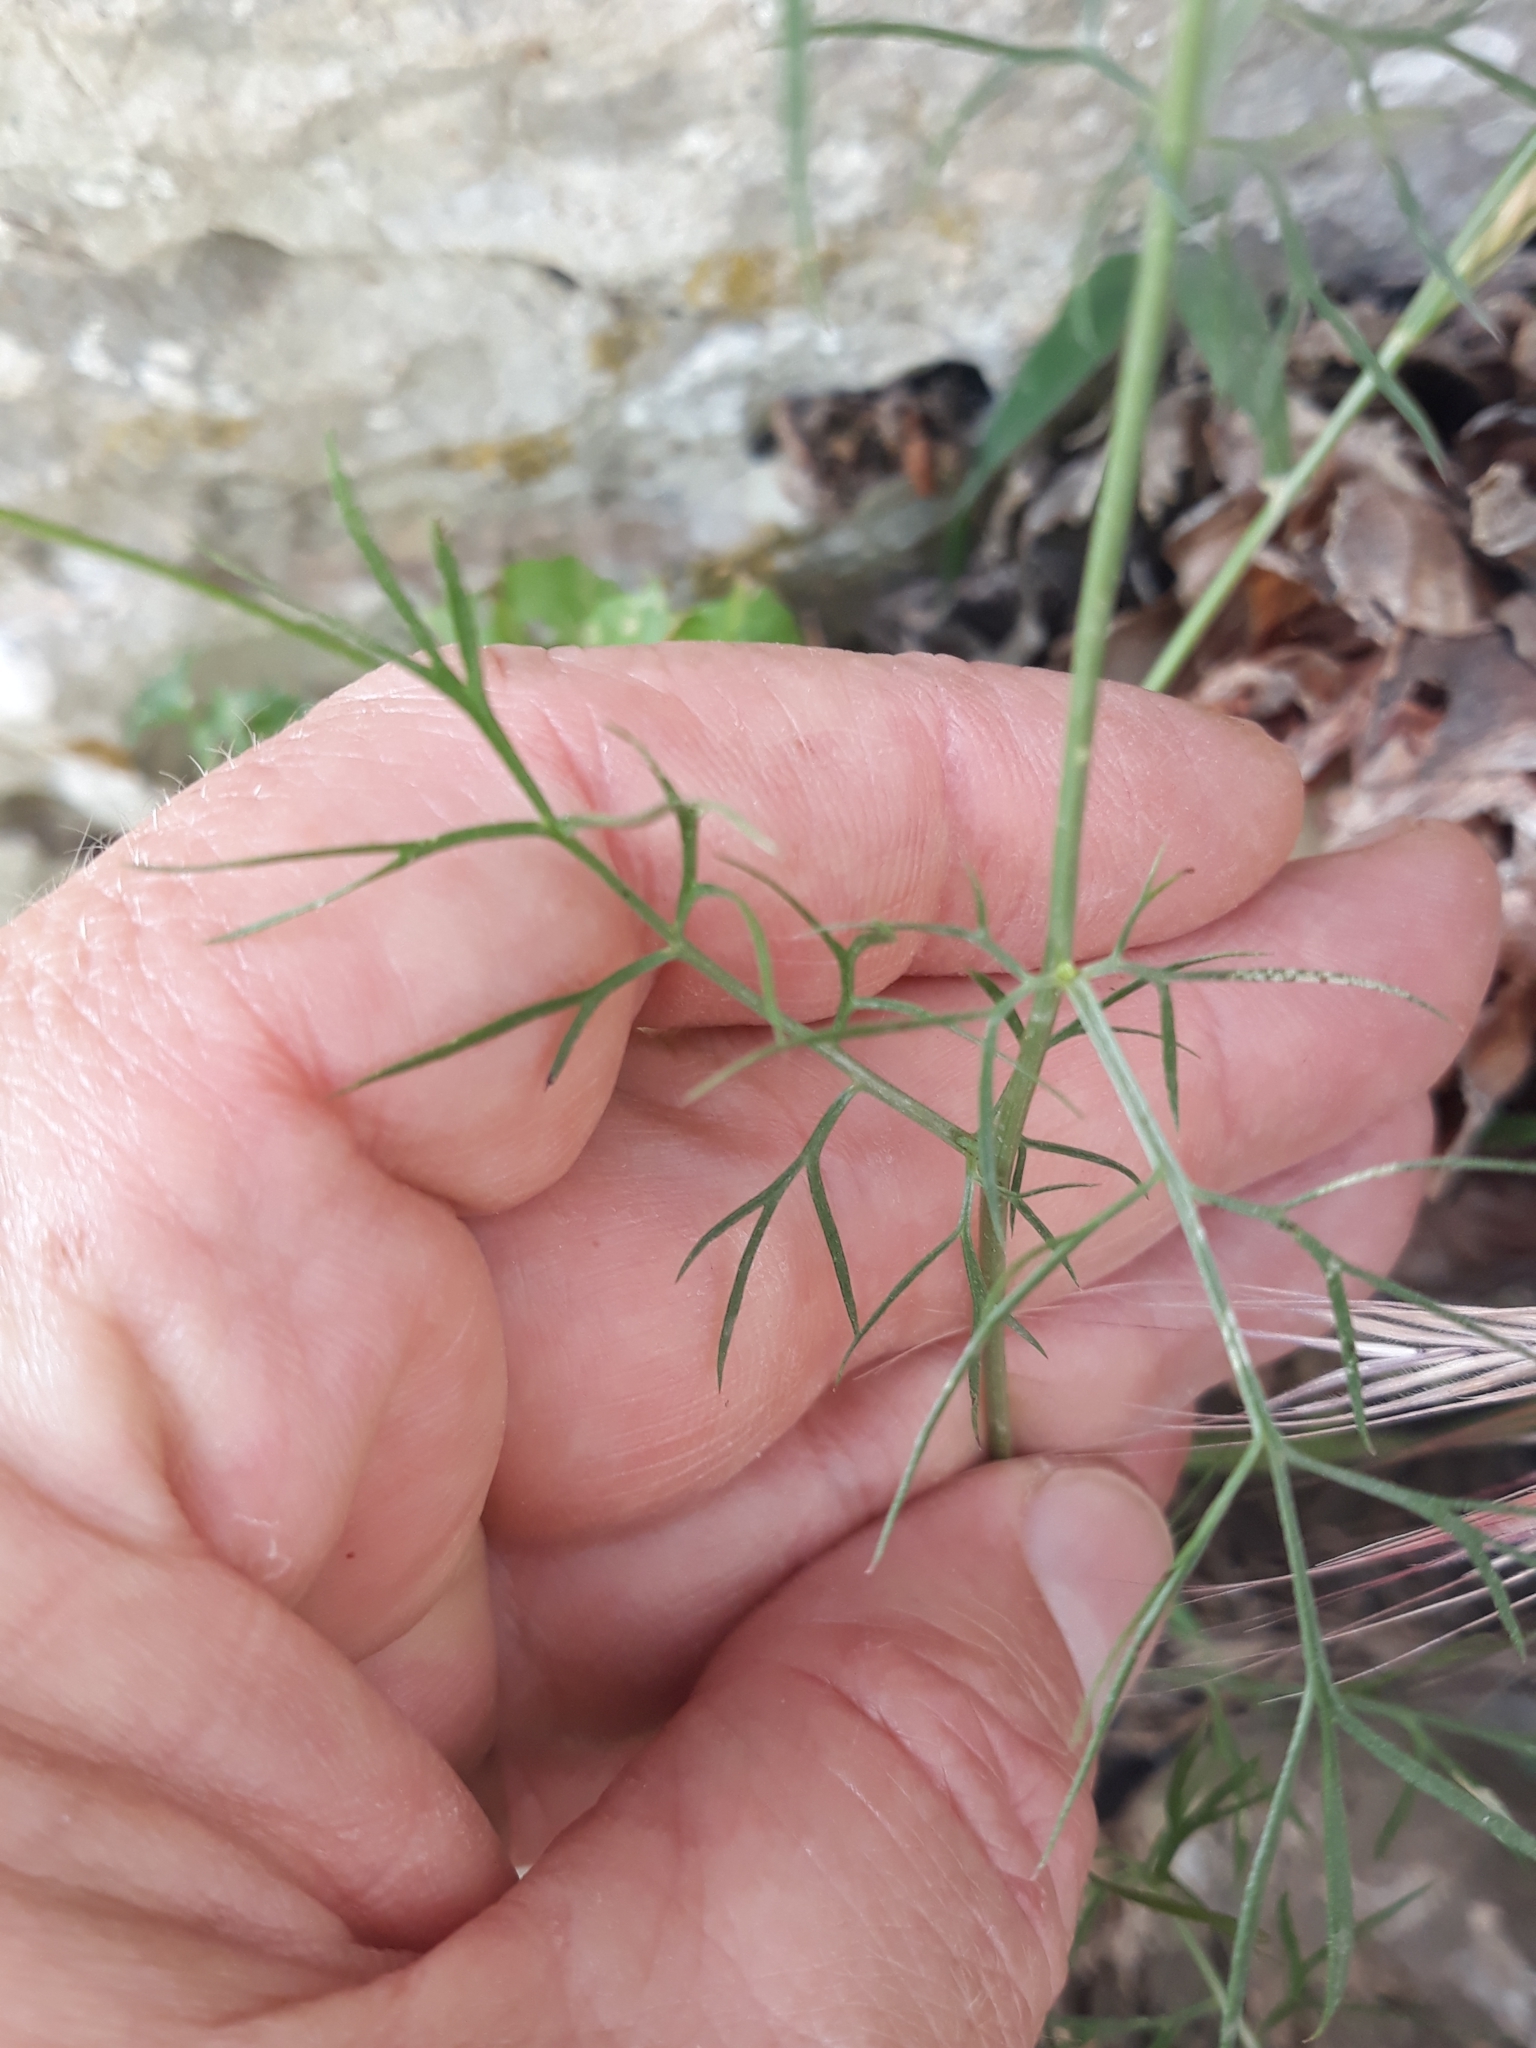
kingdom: Plantae
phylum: Tracheophyta
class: Magnoliopsida
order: Ranunculales
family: Ranunculaceae
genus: Nigella
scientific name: Nigella damascena
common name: Love-in-a-mist
